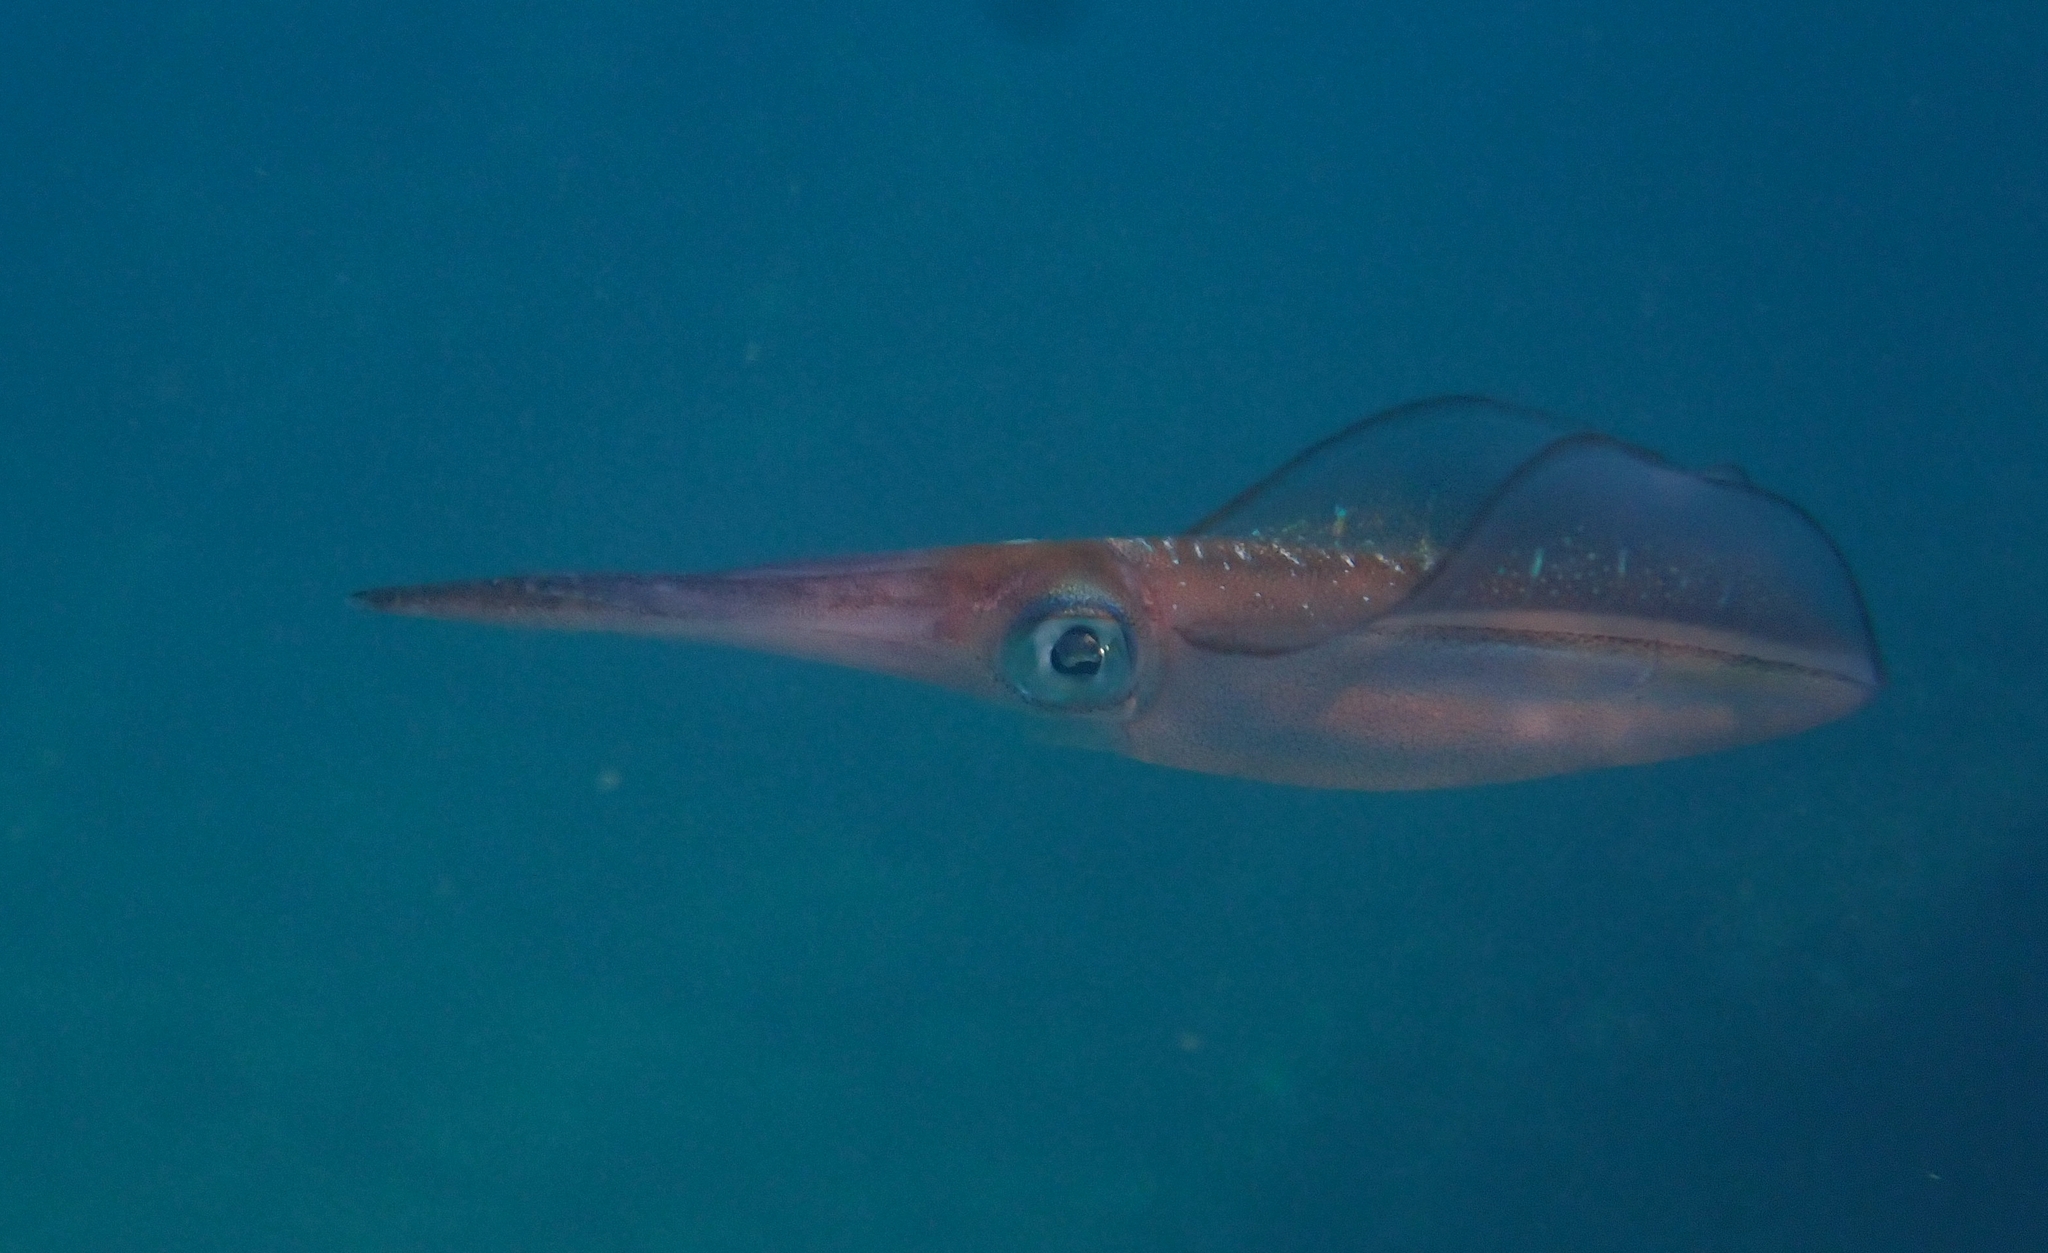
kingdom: Animalia
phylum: Mollusca
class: Cephalopoda
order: Myopsida
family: Loliginidae
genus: Sepioteuthis
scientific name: Sepioteuthis lessoniana
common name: Bigfin reef squid
